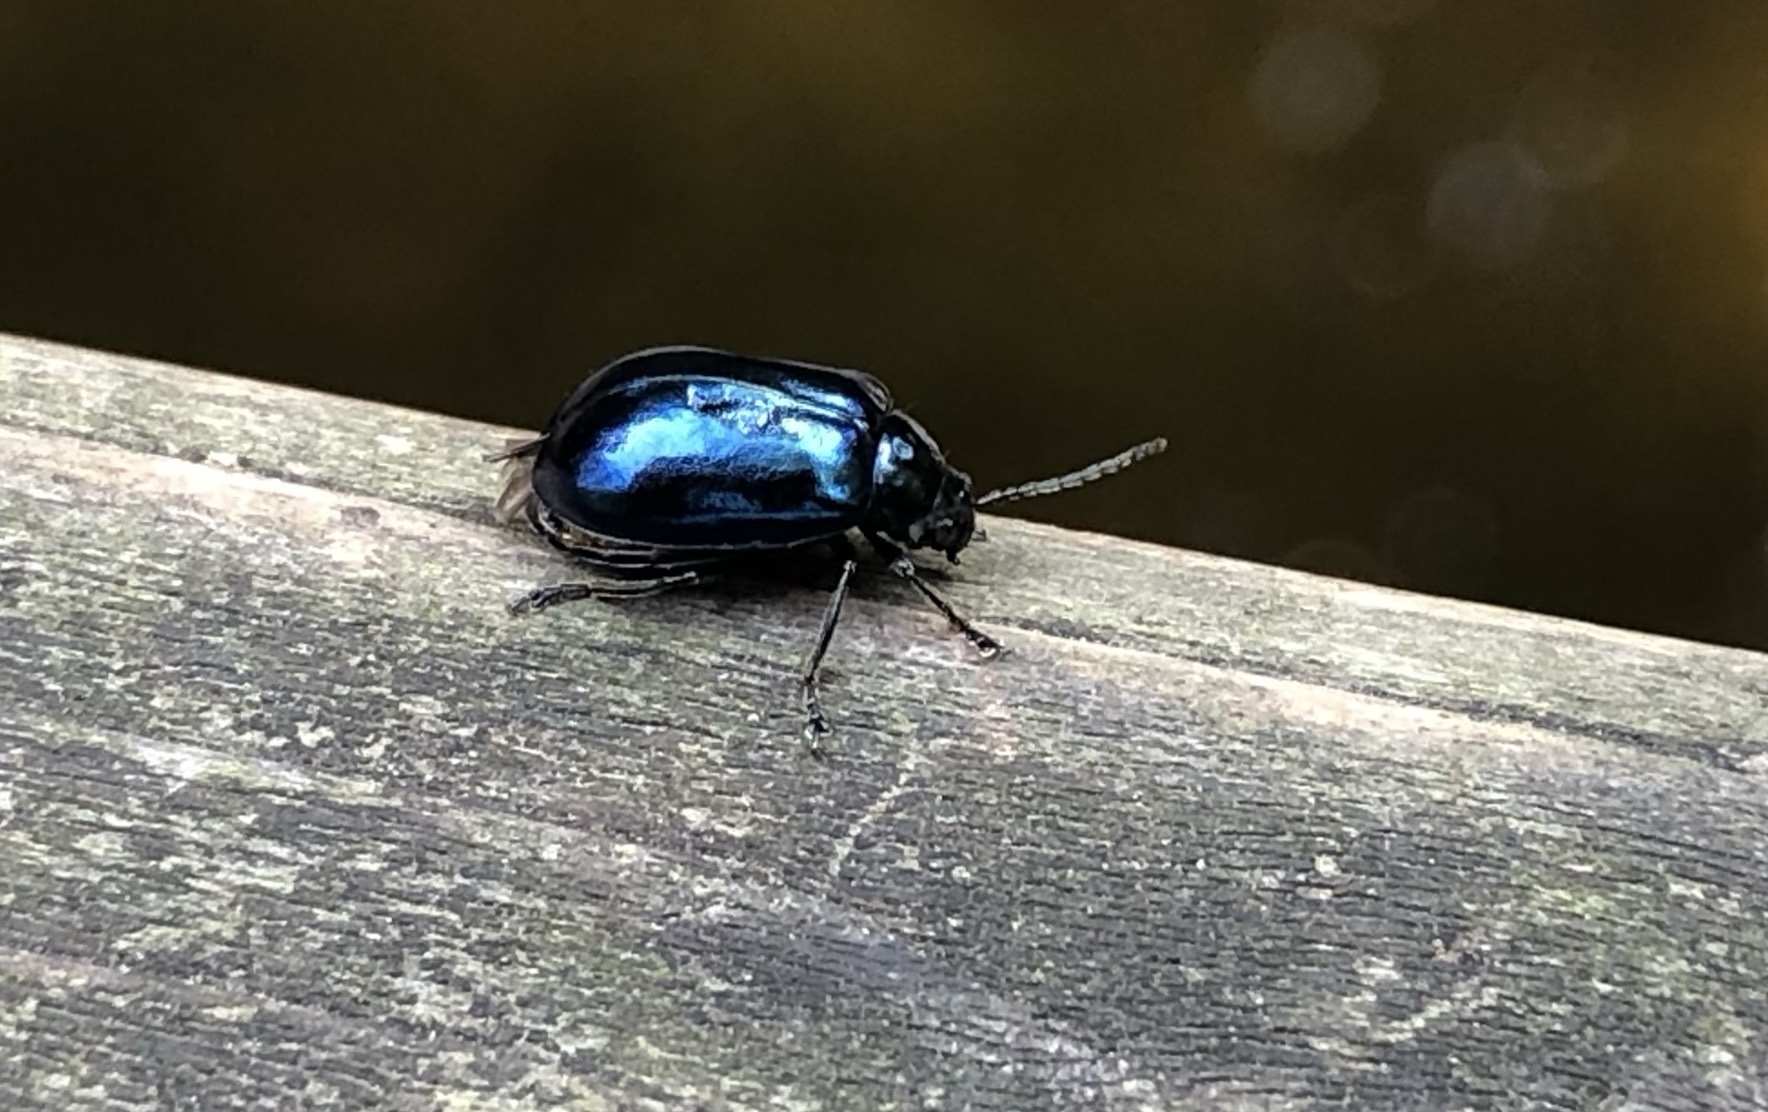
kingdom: Animalia
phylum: Arthropoda
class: Insecta
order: Coleoptera
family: Chrysomelidae
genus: Agelastica
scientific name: Agelastica alni
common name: Alder leaf beetle
